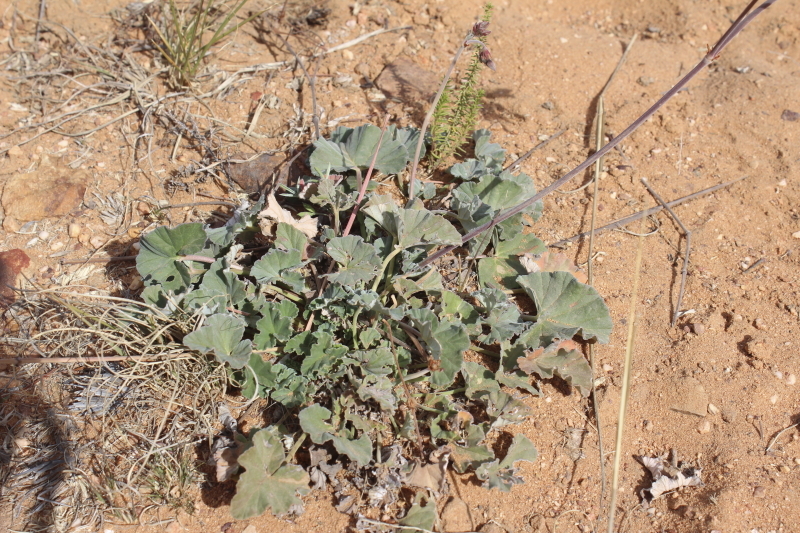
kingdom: Plantae
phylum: Tracheophyta
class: Magnoliopsida
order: Geraniales
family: Geraniaceae
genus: Pelargonium
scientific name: Pelargonium sidoides
